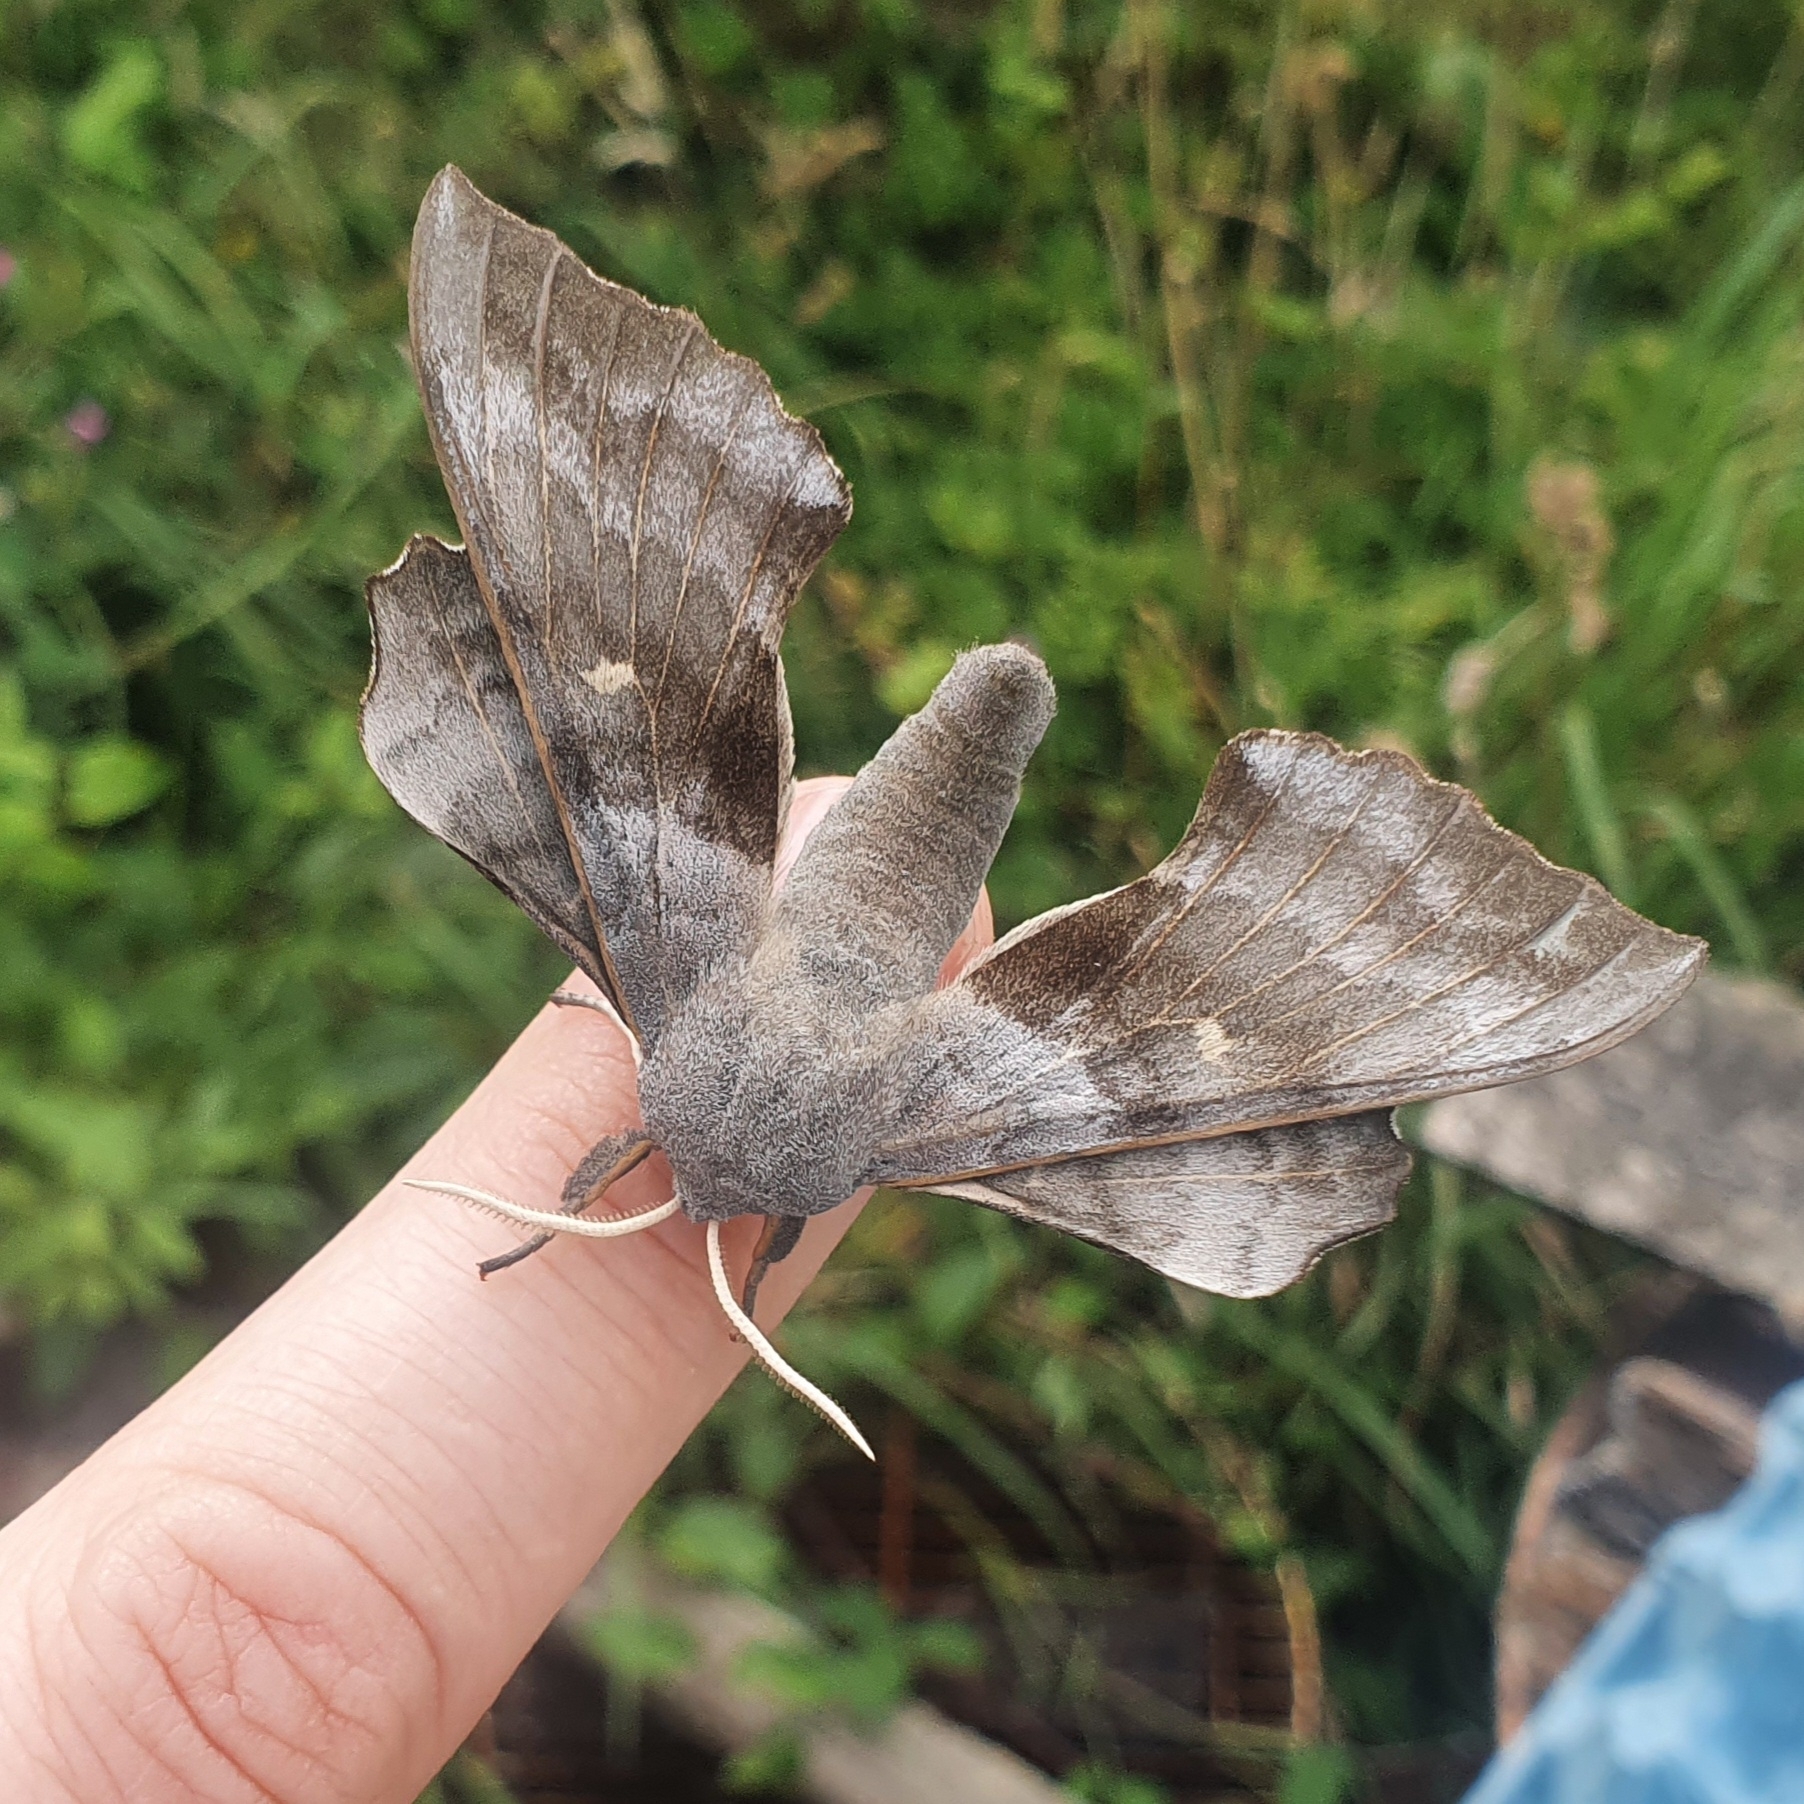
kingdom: Animalia
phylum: Arthropoda
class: Insecta
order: Lepidoptera
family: Sphingidae
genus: Laothoe
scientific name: Laothoe populi
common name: Poplar hawk-moth
